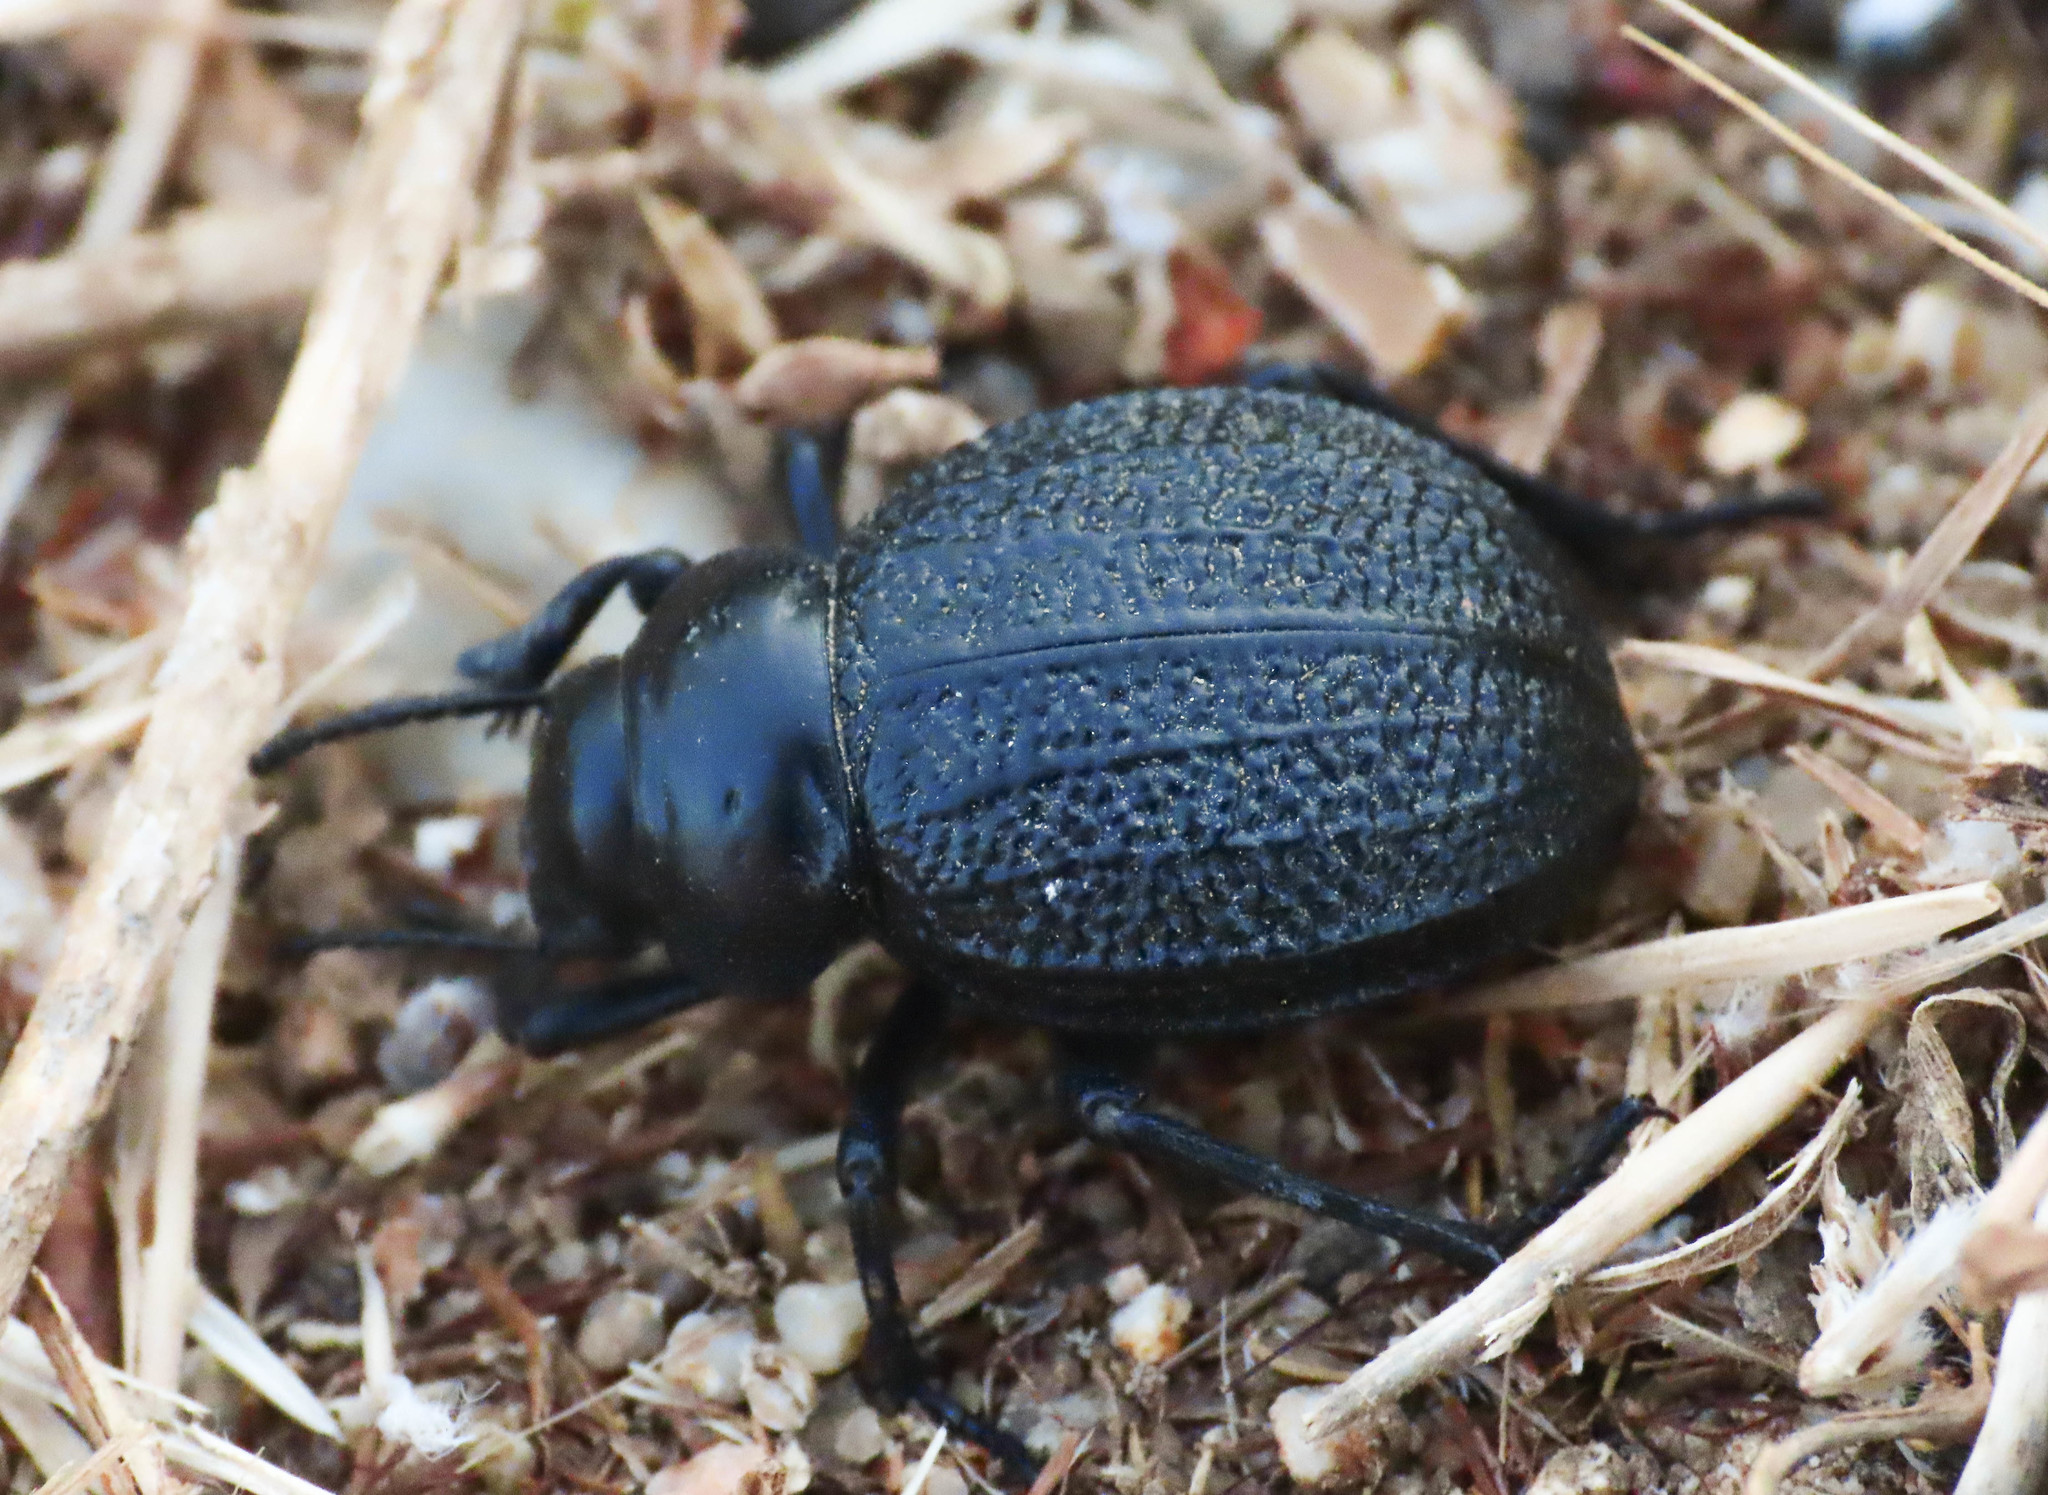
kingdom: Animalia
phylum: Arthropoda
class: Insecta
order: Coleoptera
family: Tenebrionidae
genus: Pimelia
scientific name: Pimelia angusticollis
